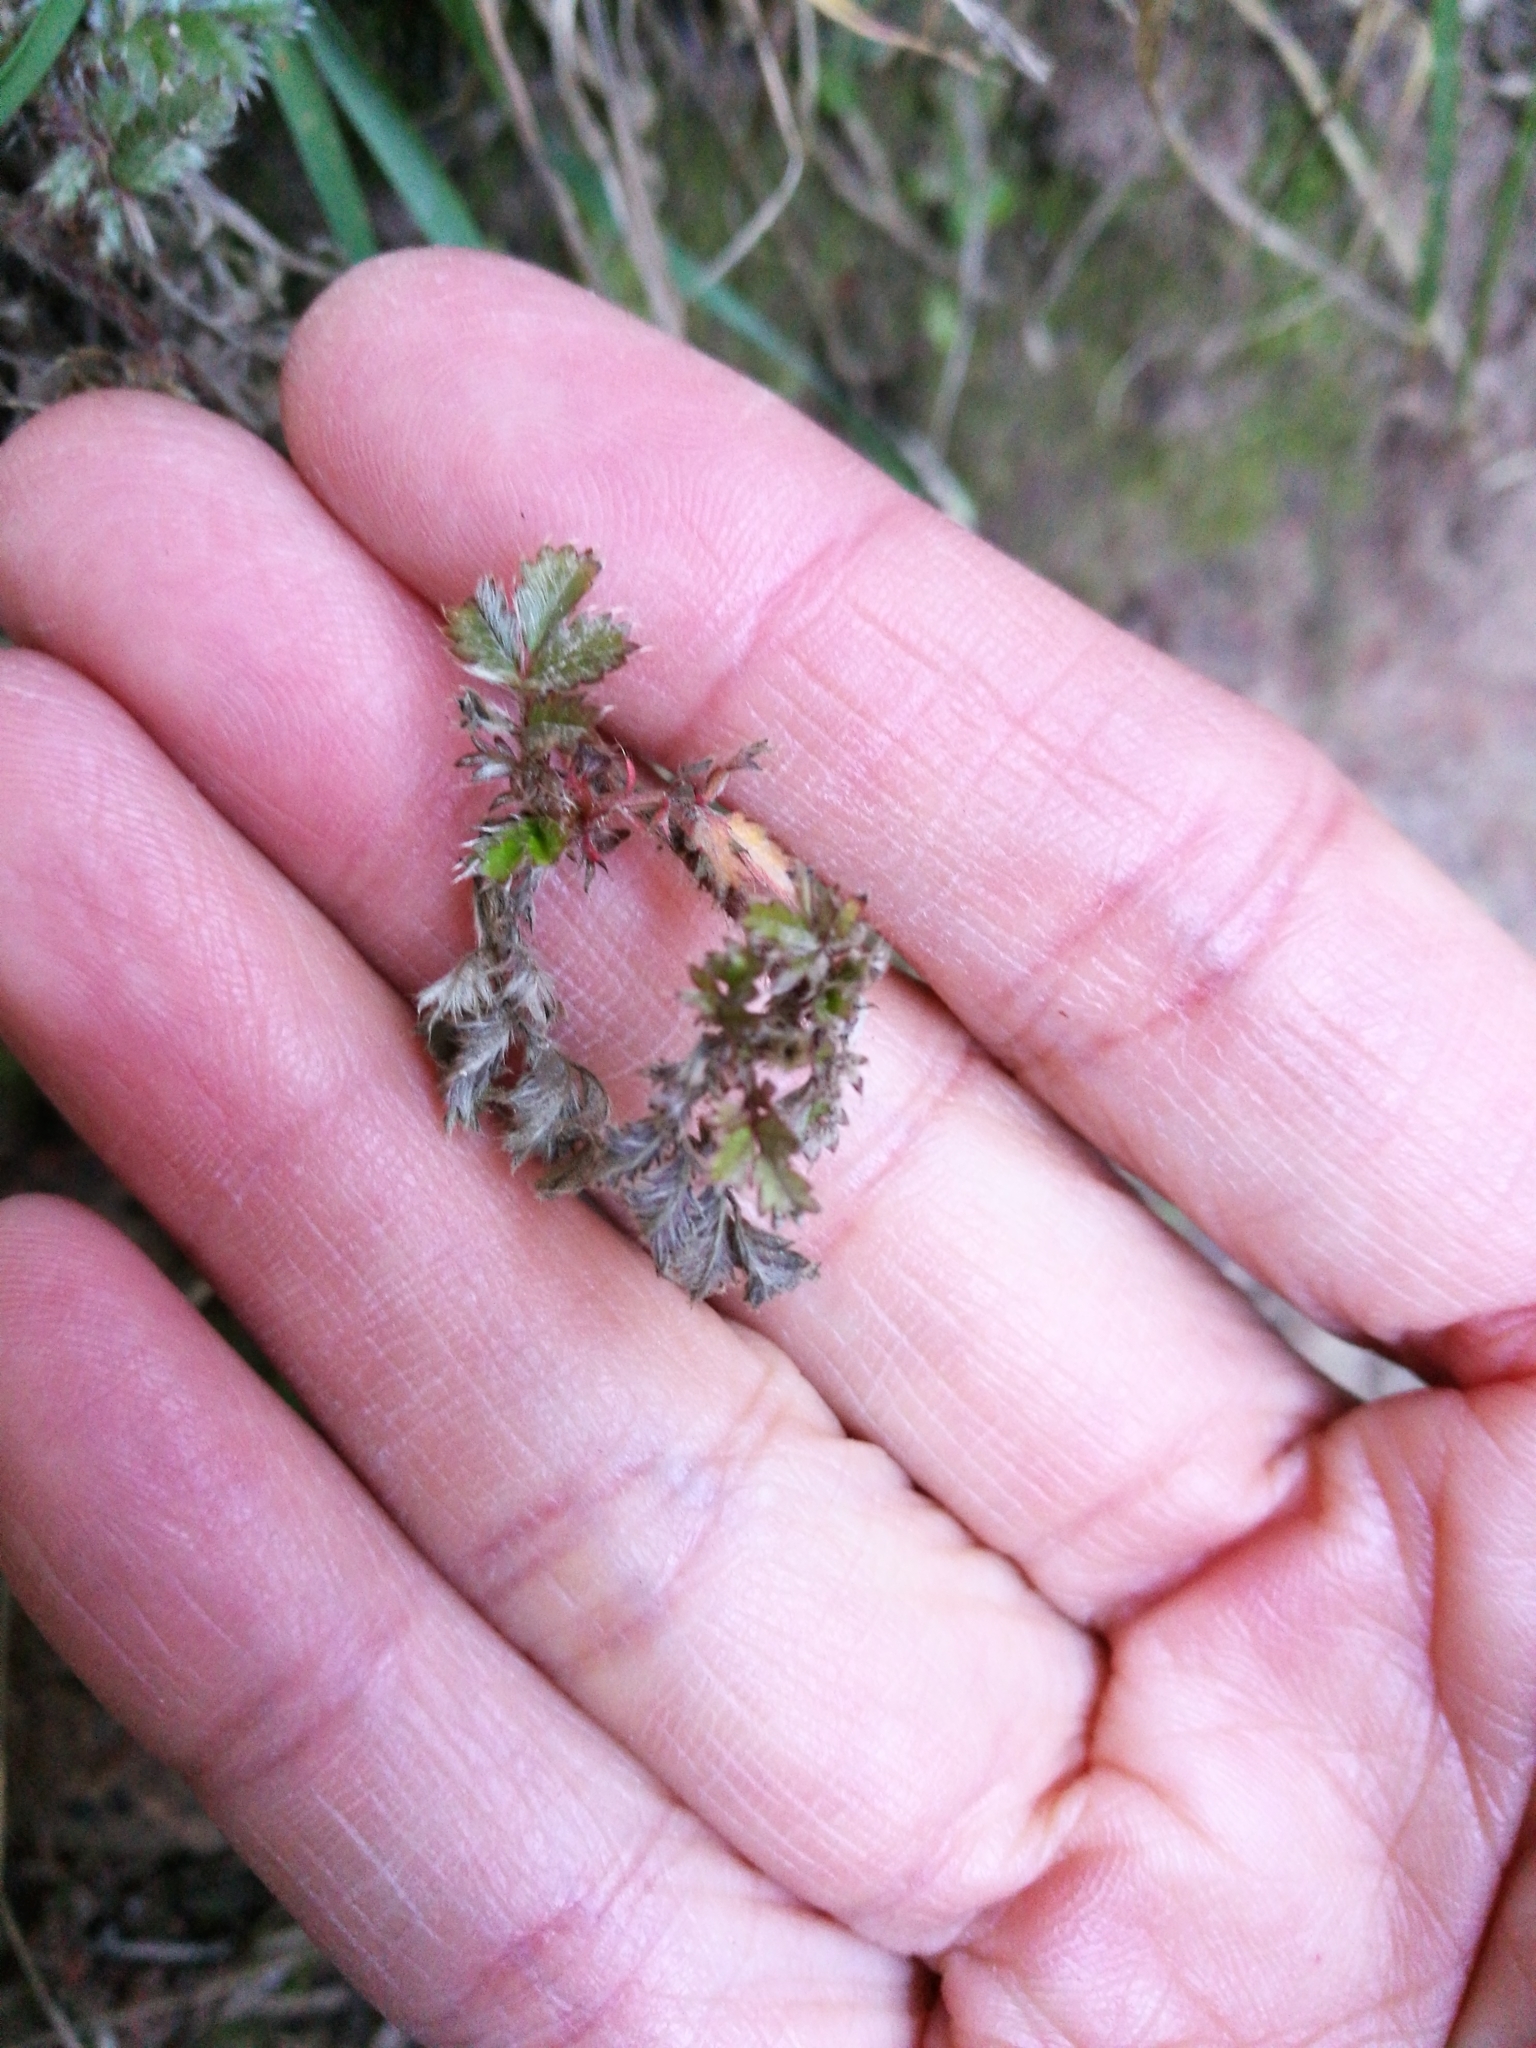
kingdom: Plantae
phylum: Tracheophyta
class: Magnoliopsida
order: Rosales
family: Rosaceae
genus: Acaena
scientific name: Acaena anserinifolia
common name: Bronze pirri-pirri-bur
